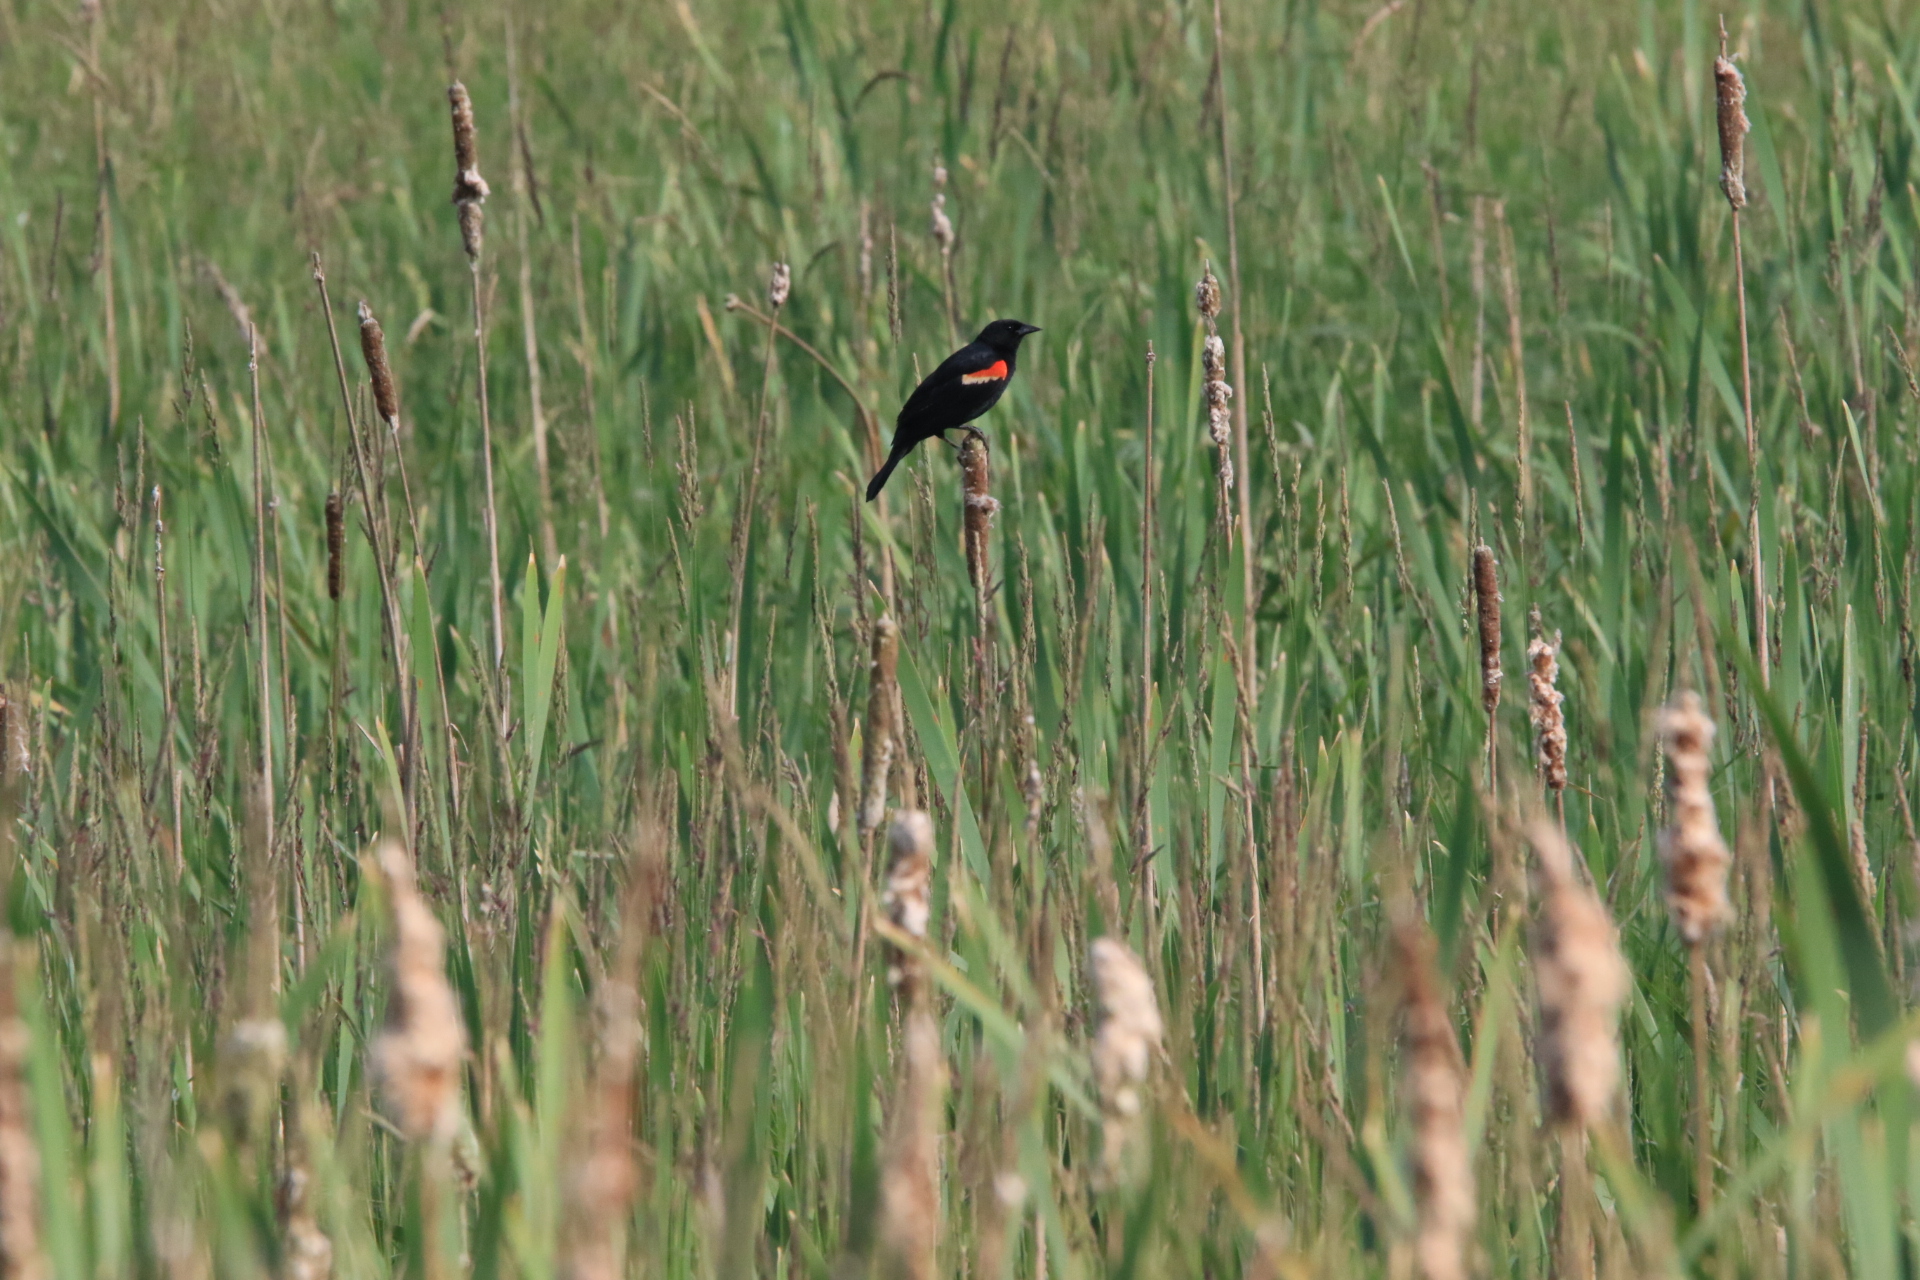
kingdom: Animalia
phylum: Chordata
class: Aves
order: Passeriformes
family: Icteridae
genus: Agelaius
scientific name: Agelaius phoeniceus
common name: Red-winged blackbird
